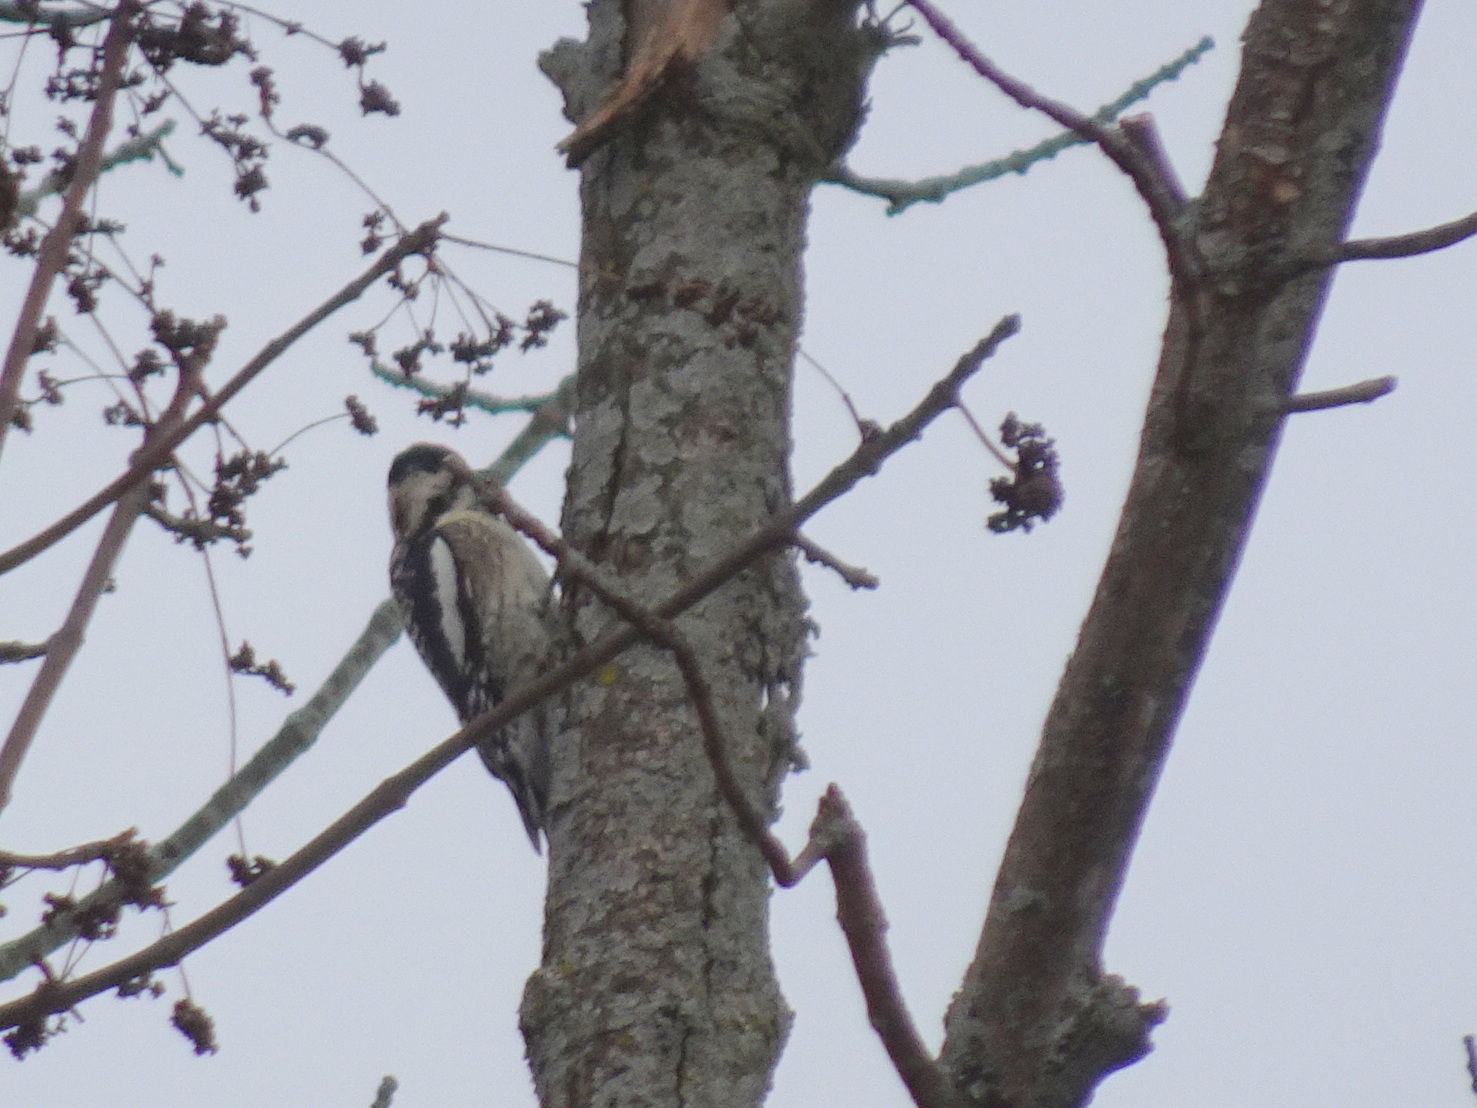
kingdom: Animalia
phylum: Chordata
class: Aves
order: Piciformes
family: Picidae
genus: Sphyrapicus
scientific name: Sphyrapicus varius
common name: Yellow-bellied sapsucker
